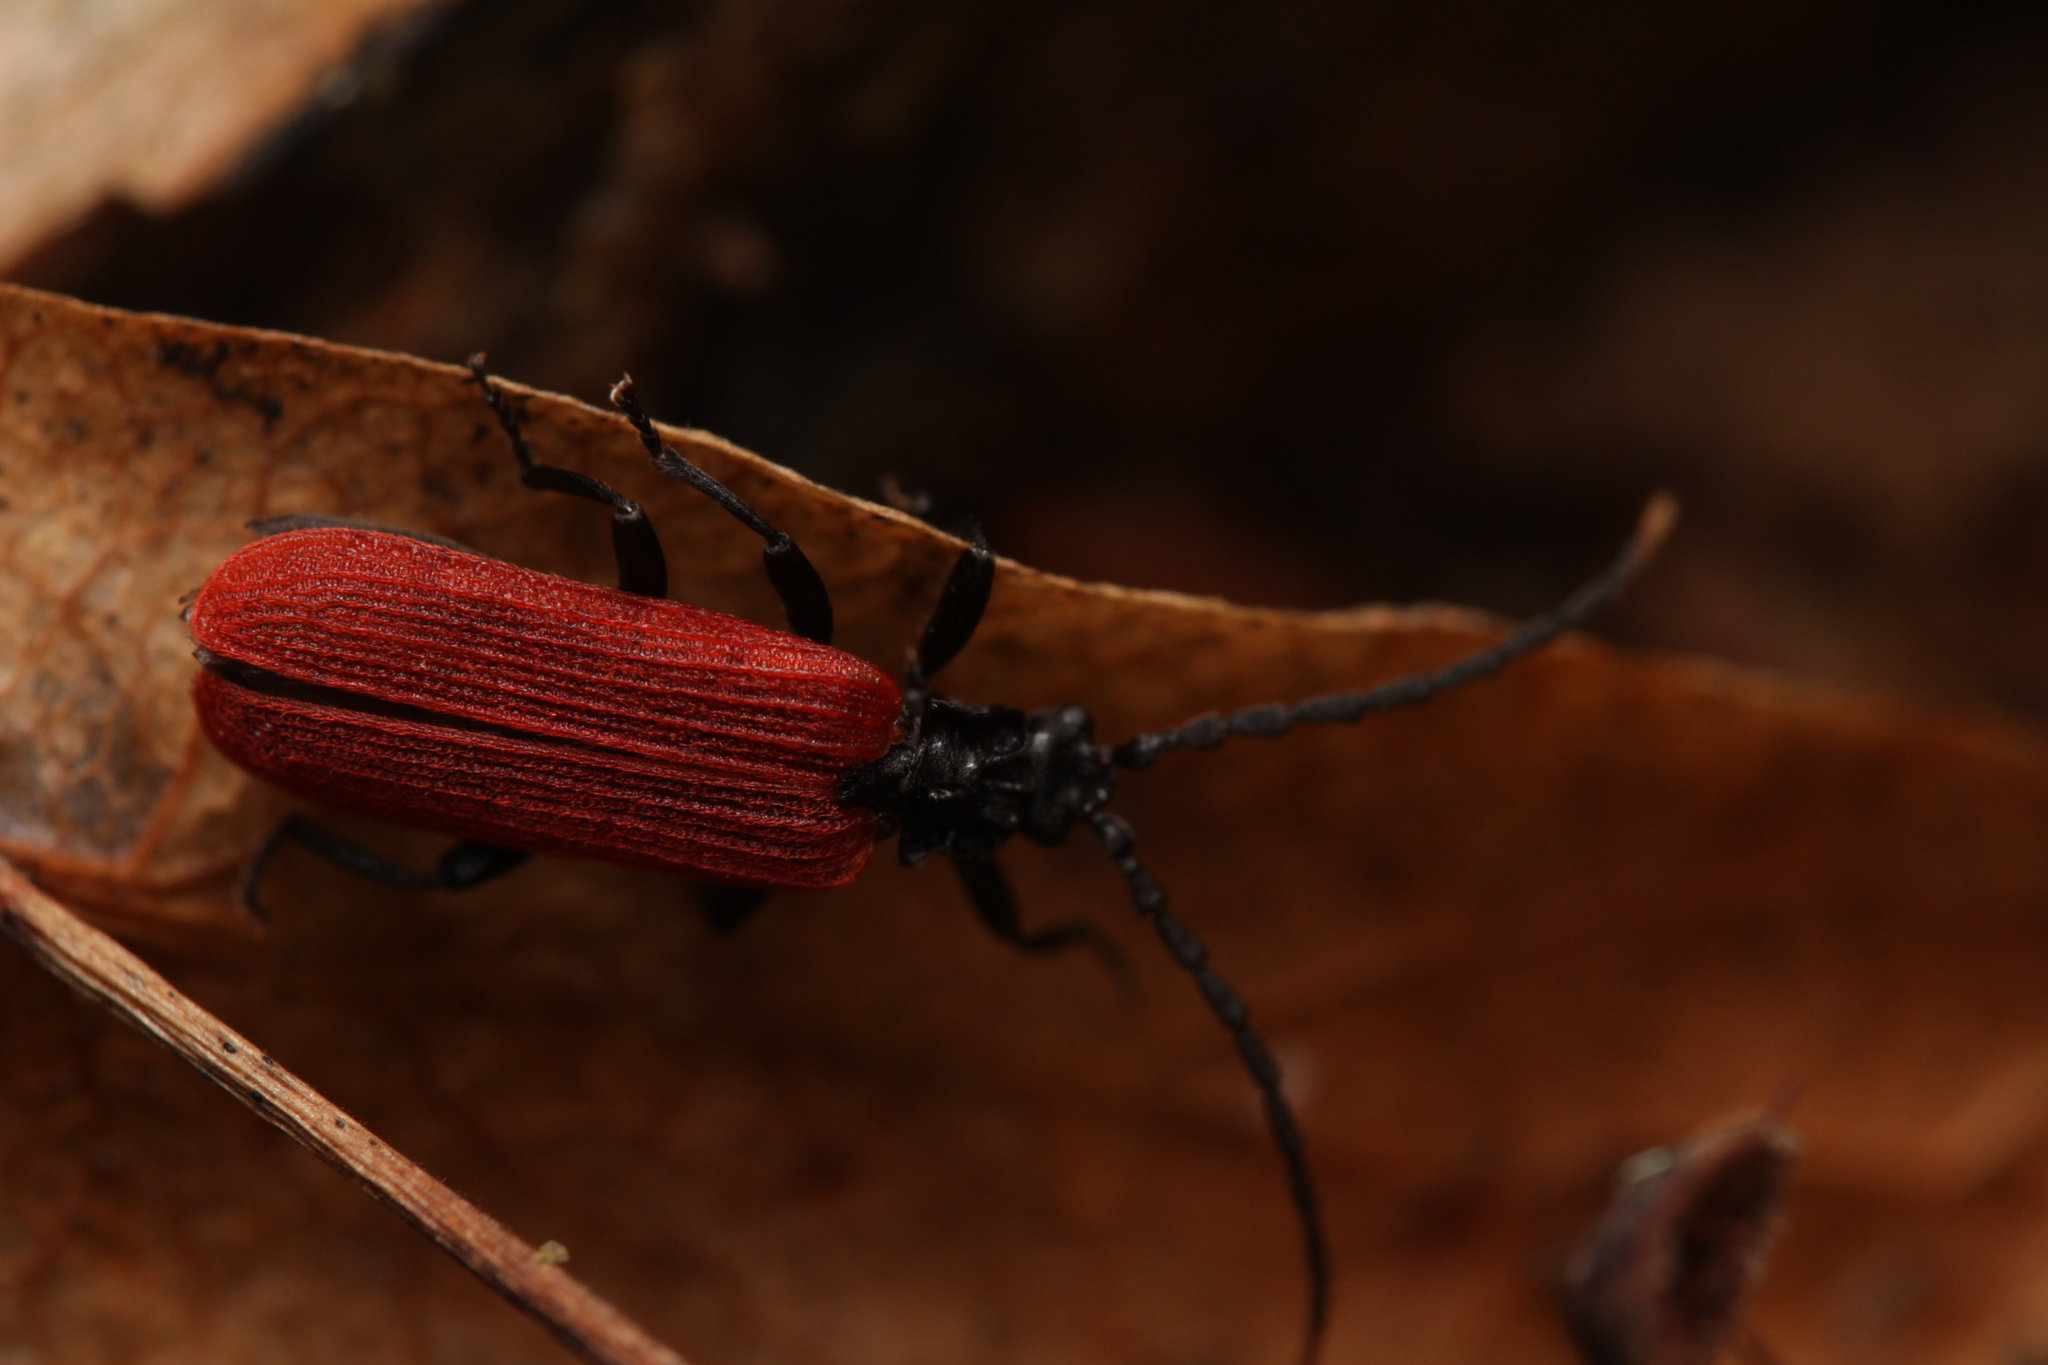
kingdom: Animalia
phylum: Arthropoda
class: Insecta
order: Coleoptera
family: Lycidae
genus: Platycis
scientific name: Platycis minutus
